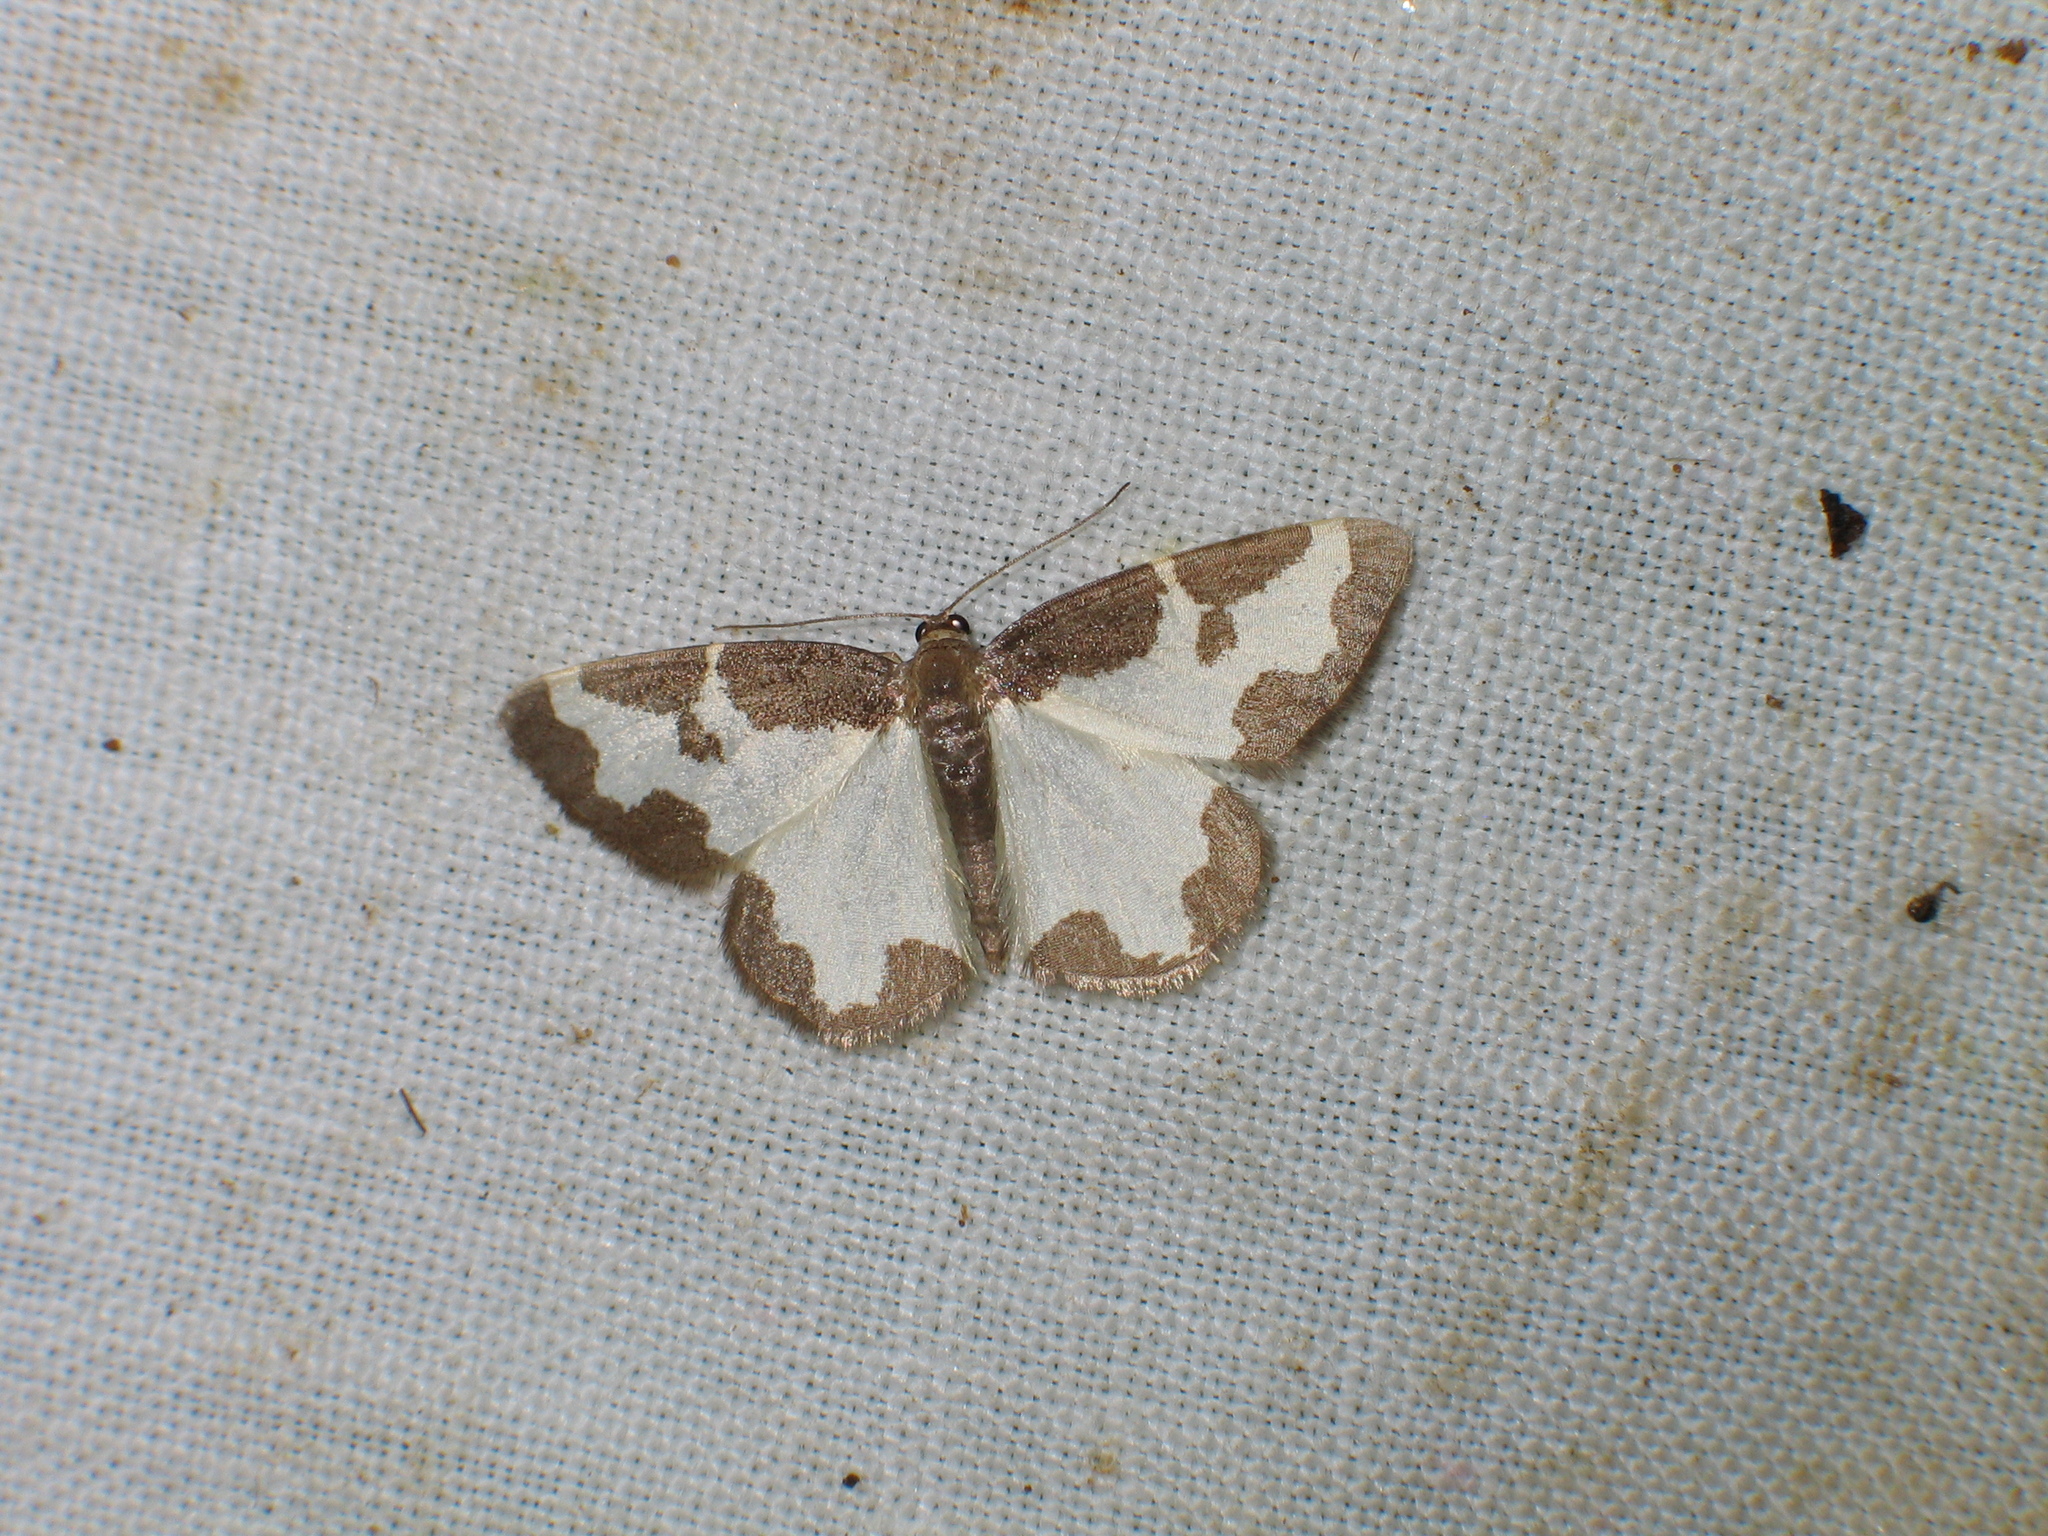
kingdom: Animalia
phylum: Arthropoda
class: Insecta
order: Lepidoptera
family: Geometridae
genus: Lomaspilis
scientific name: Lomaspilis marginata
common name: Clouded border
